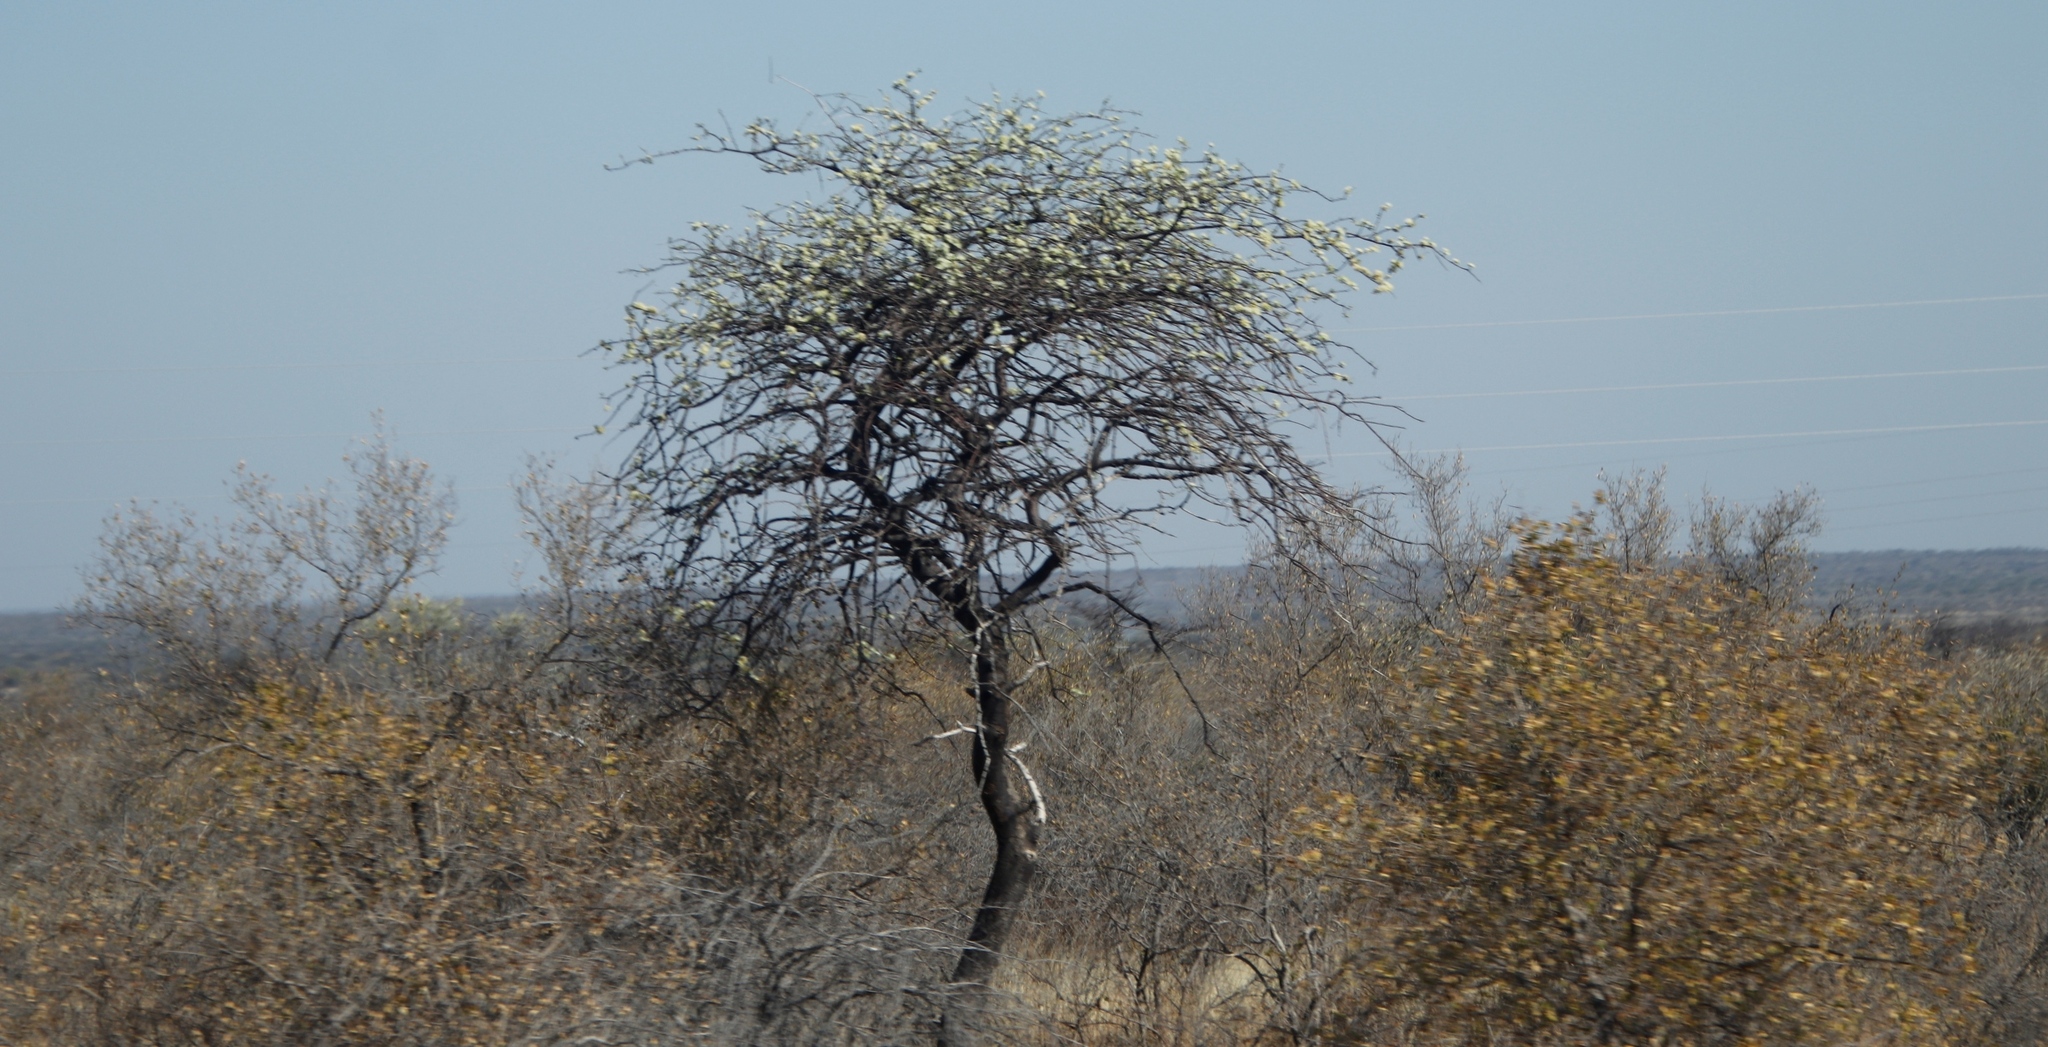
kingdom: Plantae
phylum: Tracheophyta
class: Magnoliopsida
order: Fabales
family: Fabaceae
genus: Albizia
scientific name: Albizia anthelmintica
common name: Worm-bark false-thorn
